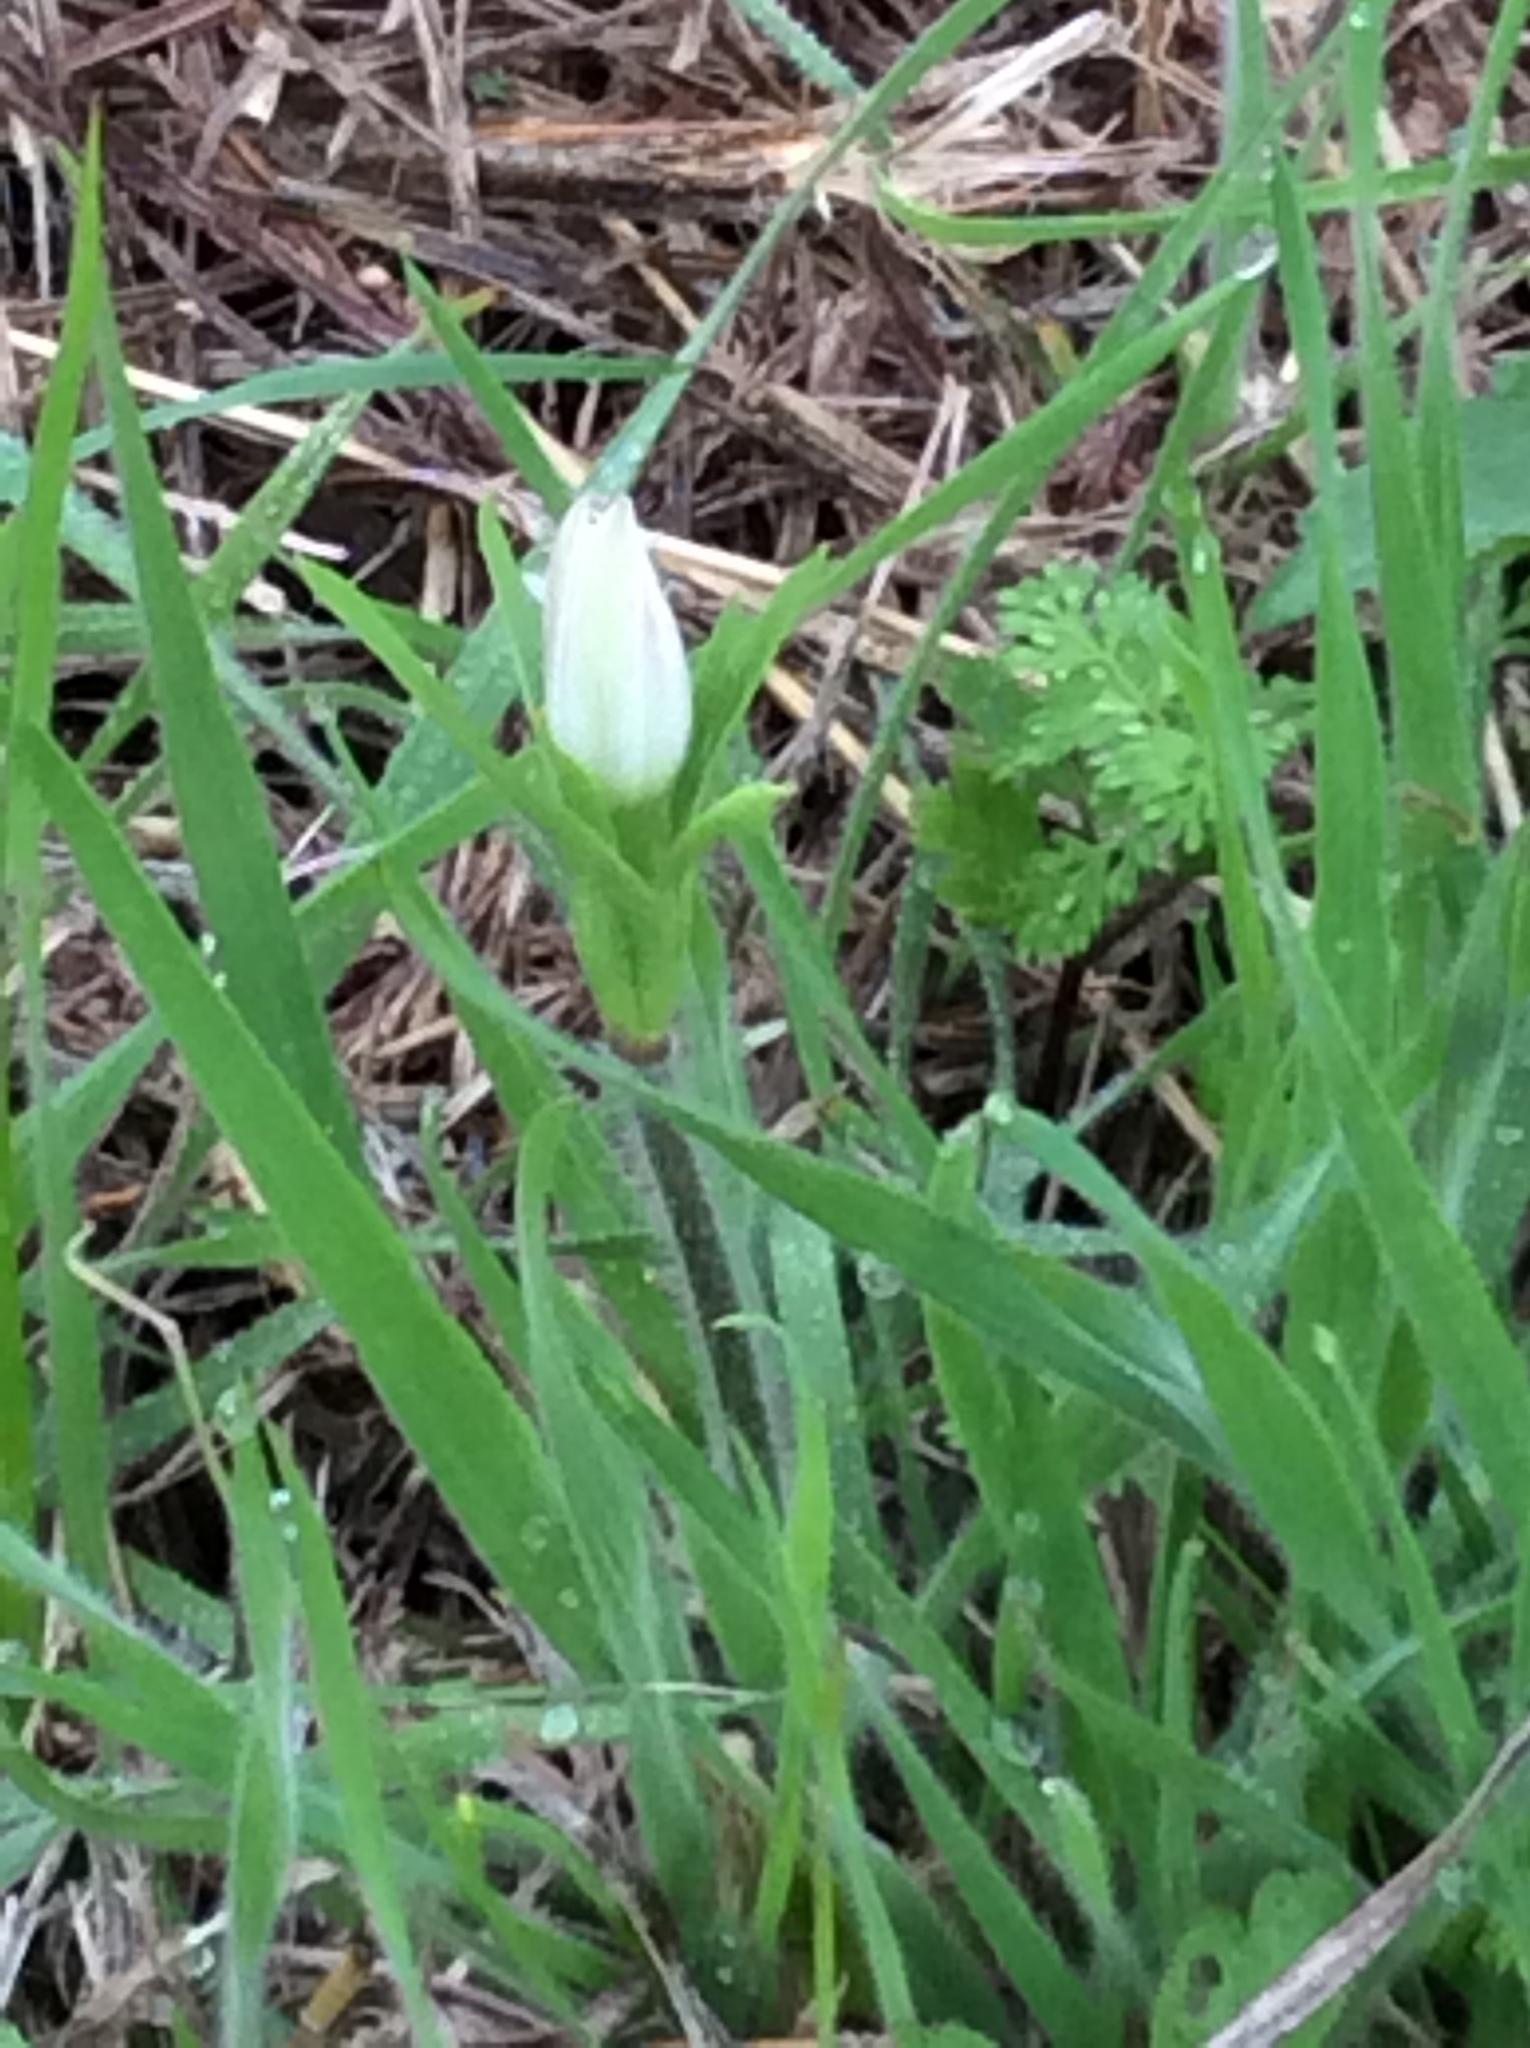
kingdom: Plantae
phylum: Tracheophyta
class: Magnoliopsida
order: Ranunculales
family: Ranunculaceae
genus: Anemone
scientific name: Anemone berlandieri
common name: Ten-petal anemone
